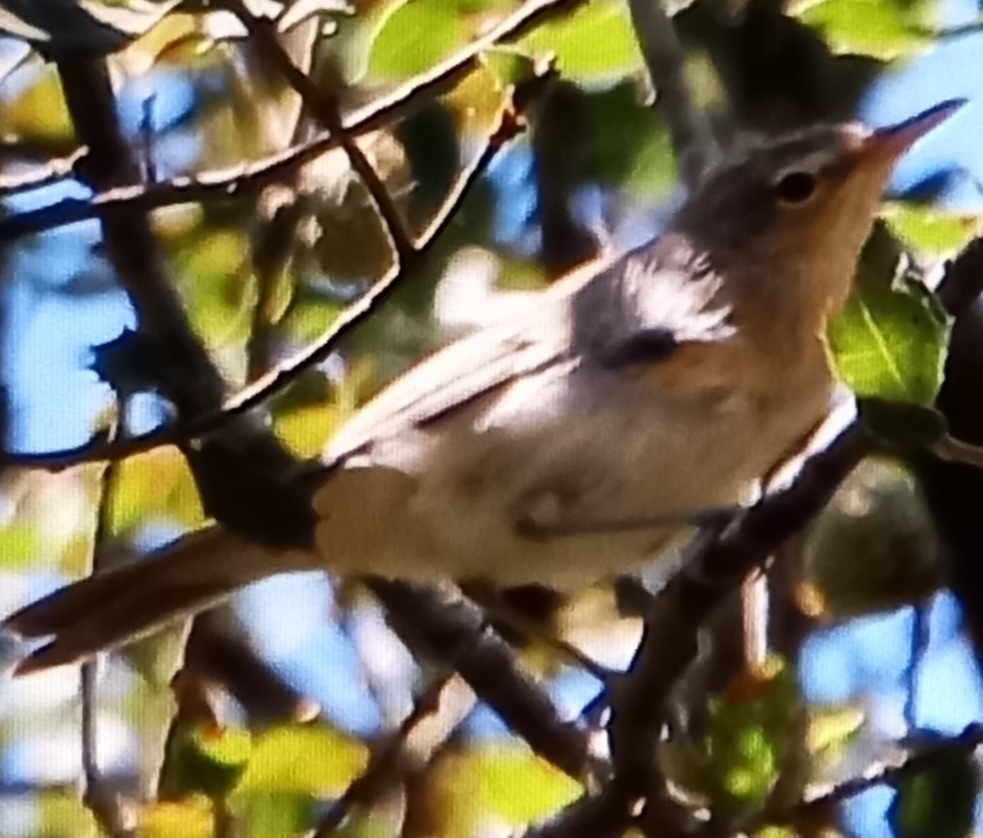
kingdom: Animalia
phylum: Chordata
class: Aves
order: Passeriformes
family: Acrocephalidae
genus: Iduna
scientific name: Iduna pallida
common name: Eastern olivaceous warbler
